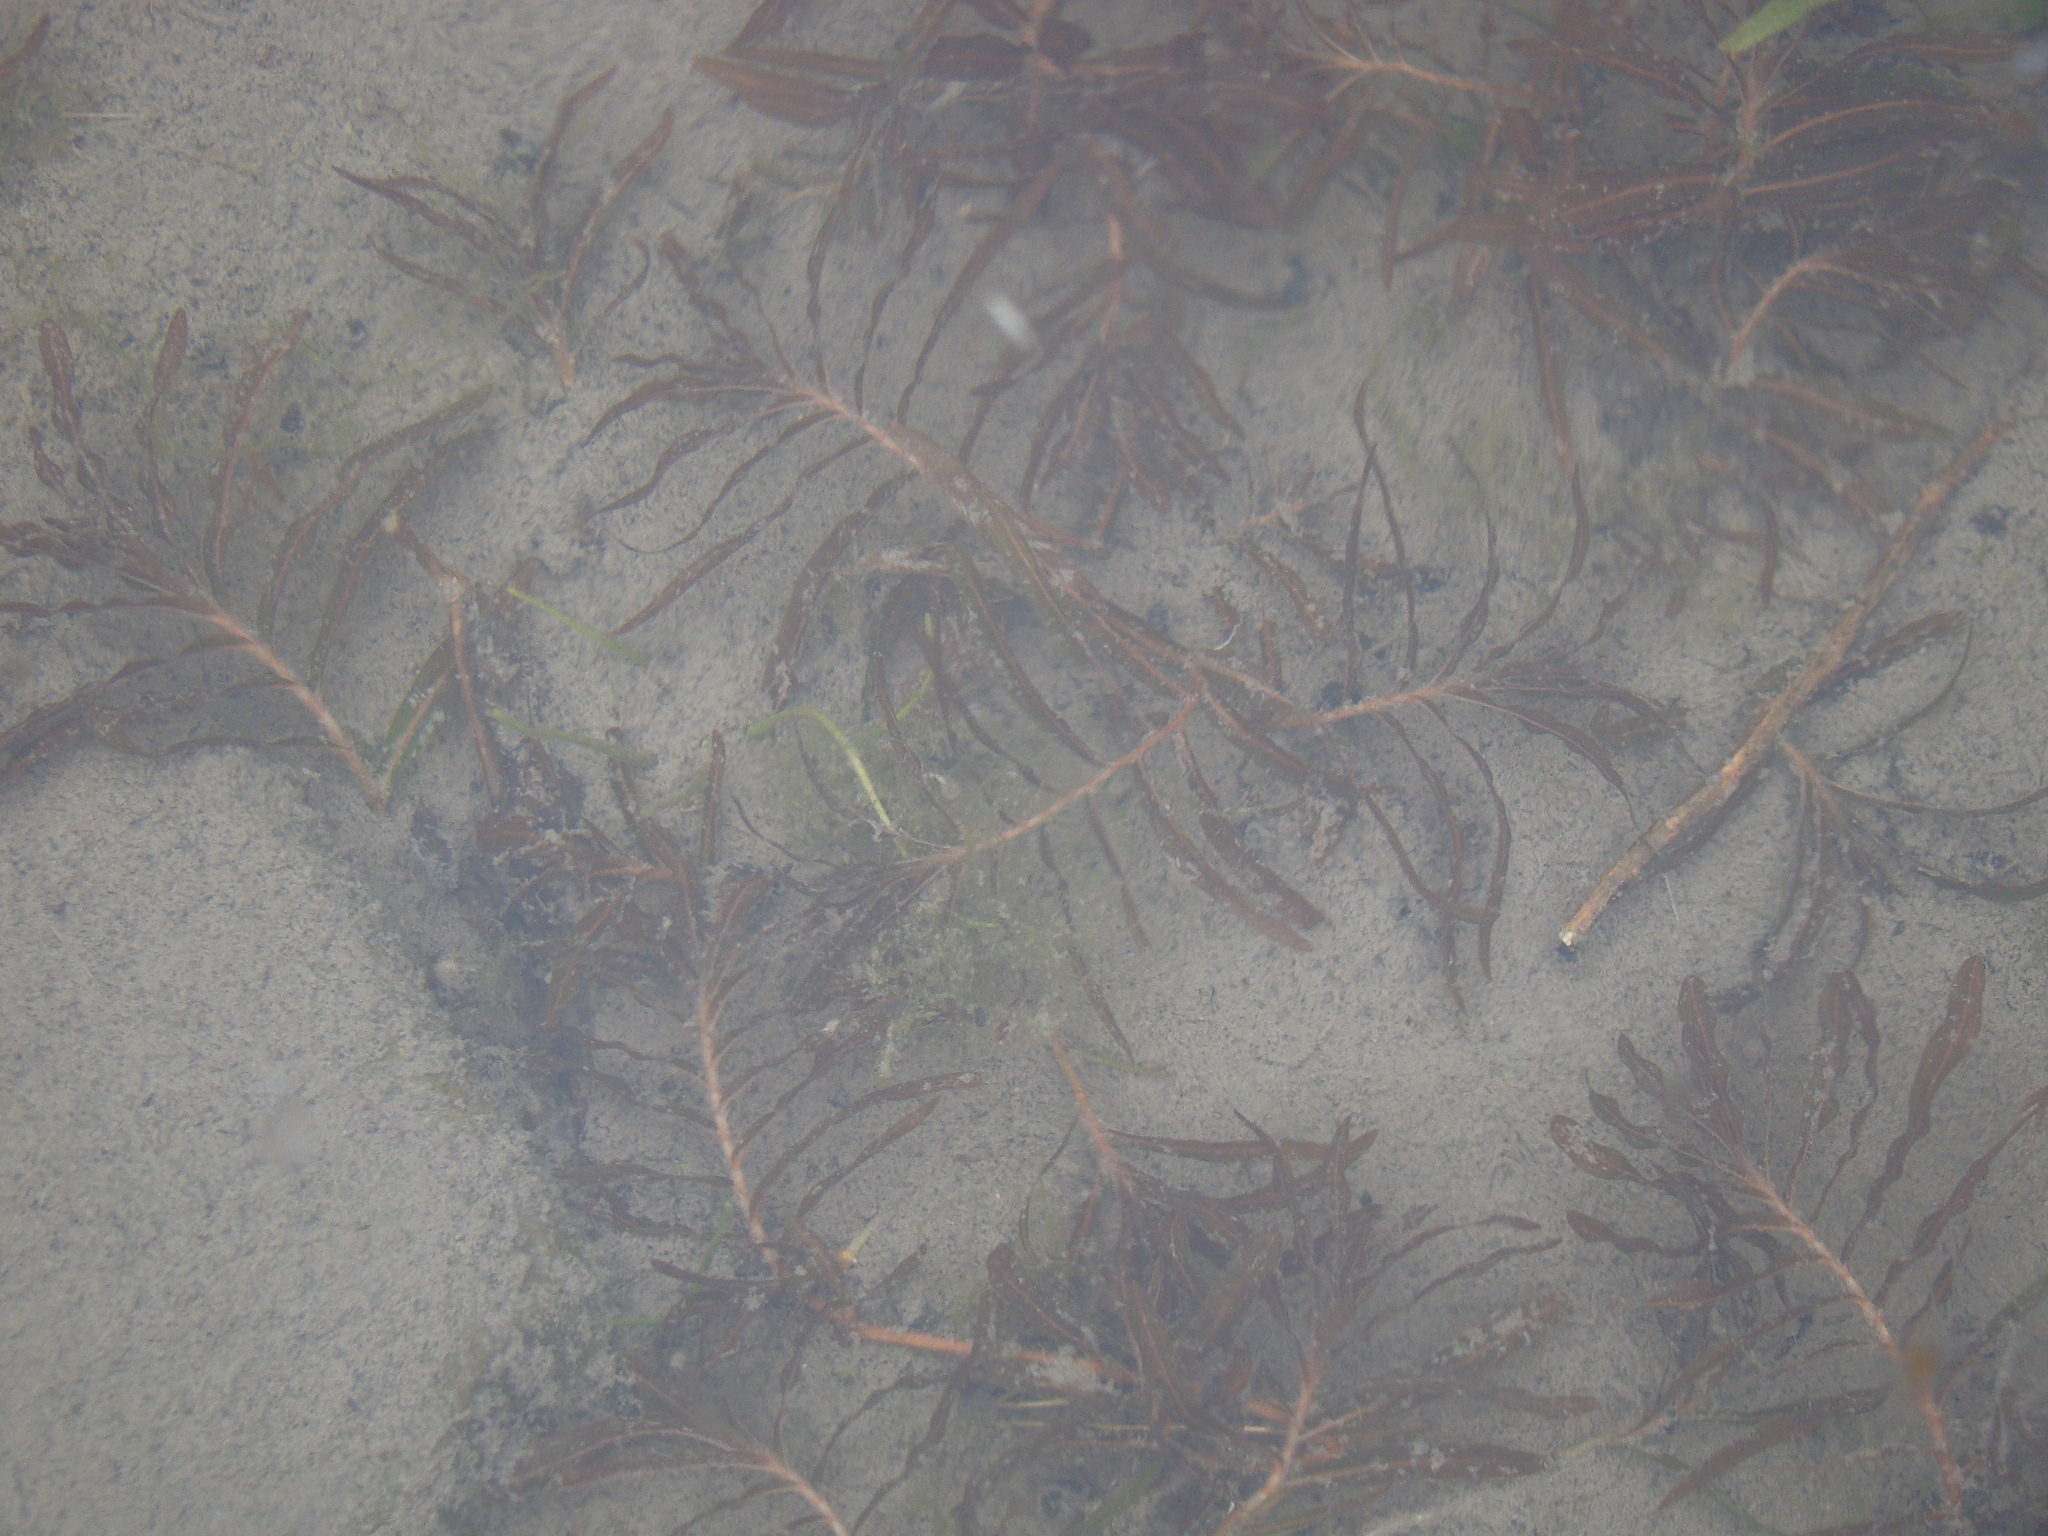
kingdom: Plantae
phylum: Tracheophyta
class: Liliopsida
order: Alismatales
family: Potamogetonaceae
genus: Potamogeton
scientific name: Potamogeton crispus
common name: Curled pondweed
